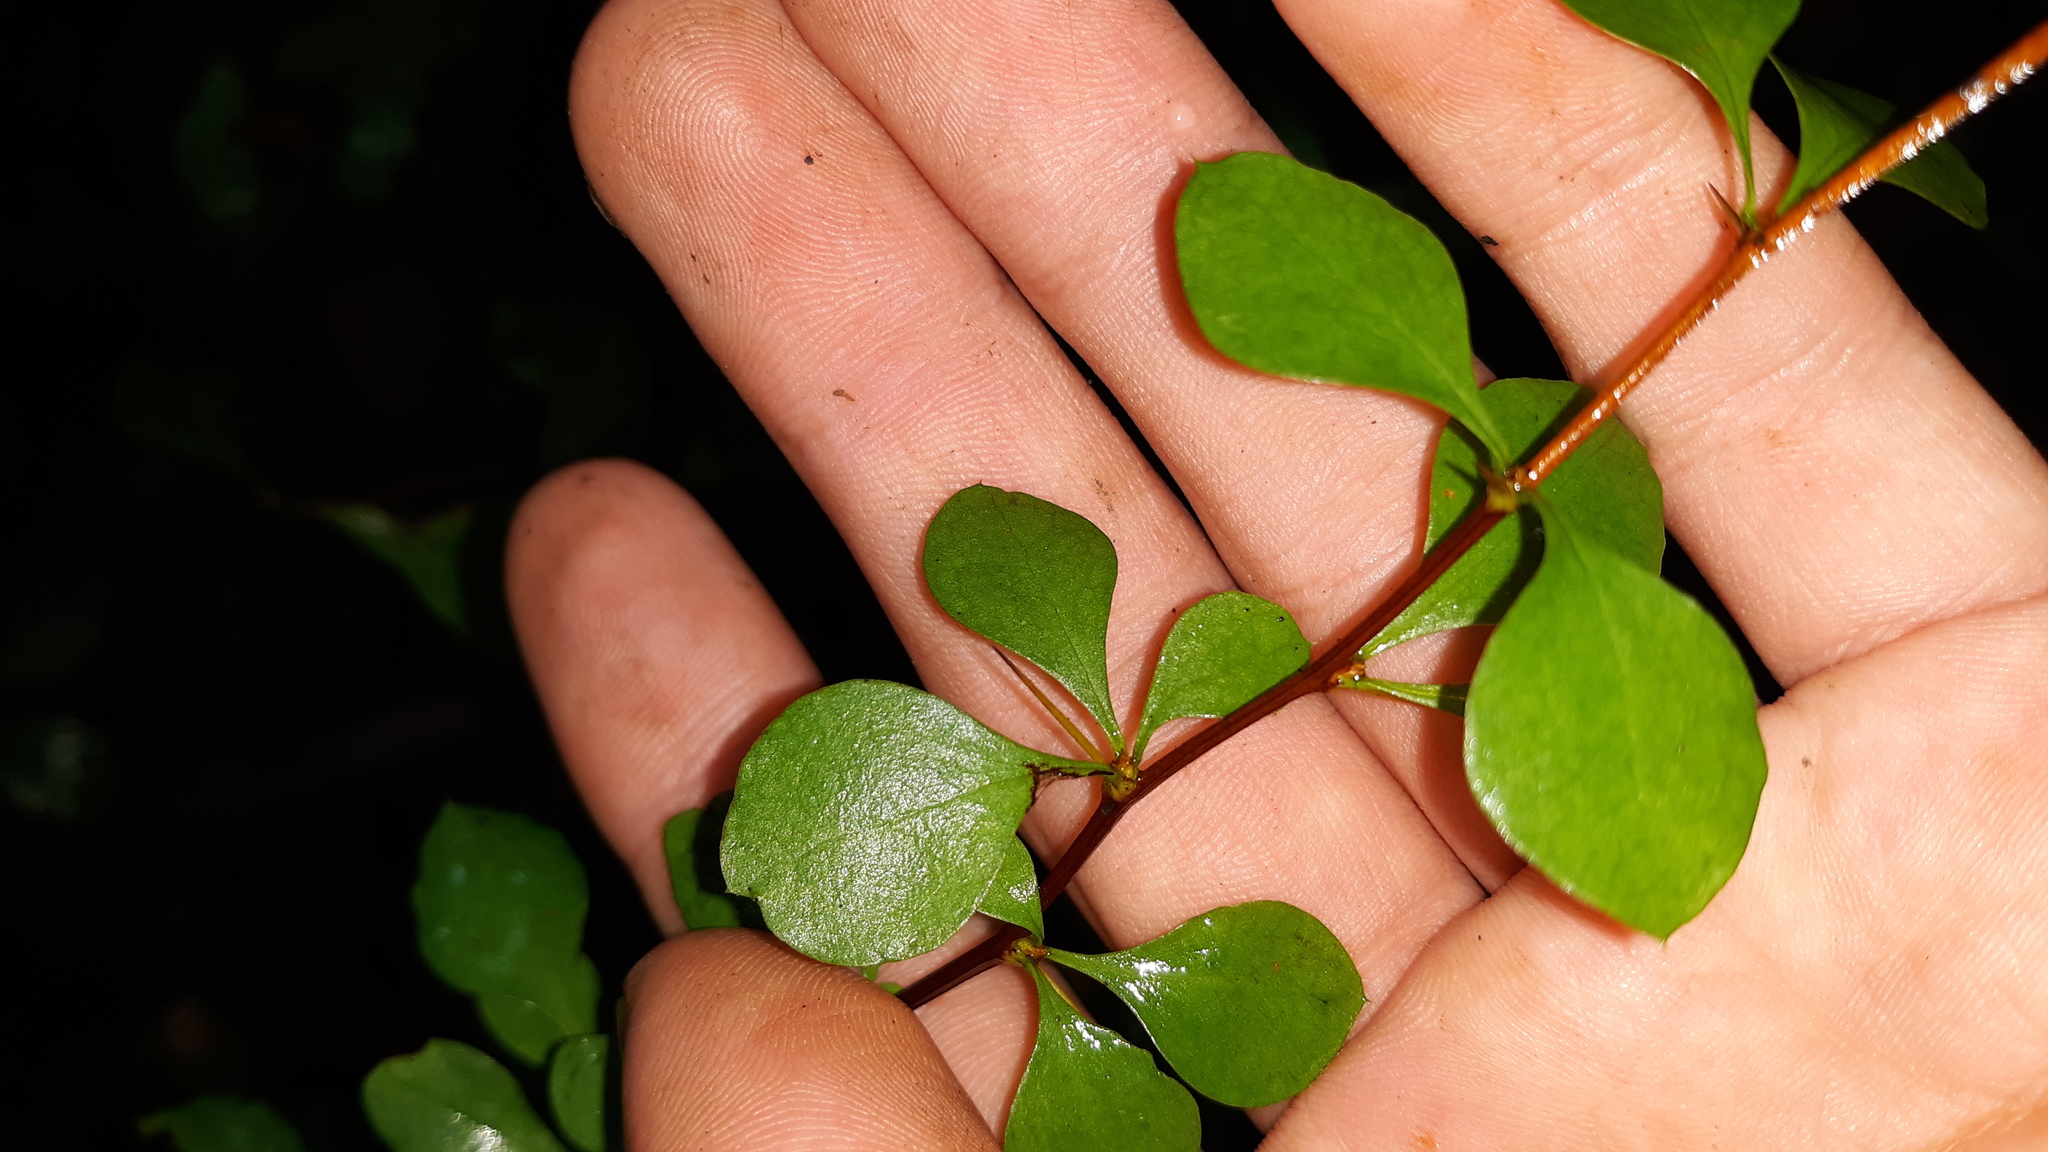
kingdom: Plantae
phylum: Tracheophyta
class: Magnoliopsida
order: Ranunculales
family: Berberidaceae
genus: Berberis
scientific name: Berberis thunbergii
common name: Japanese barberry
